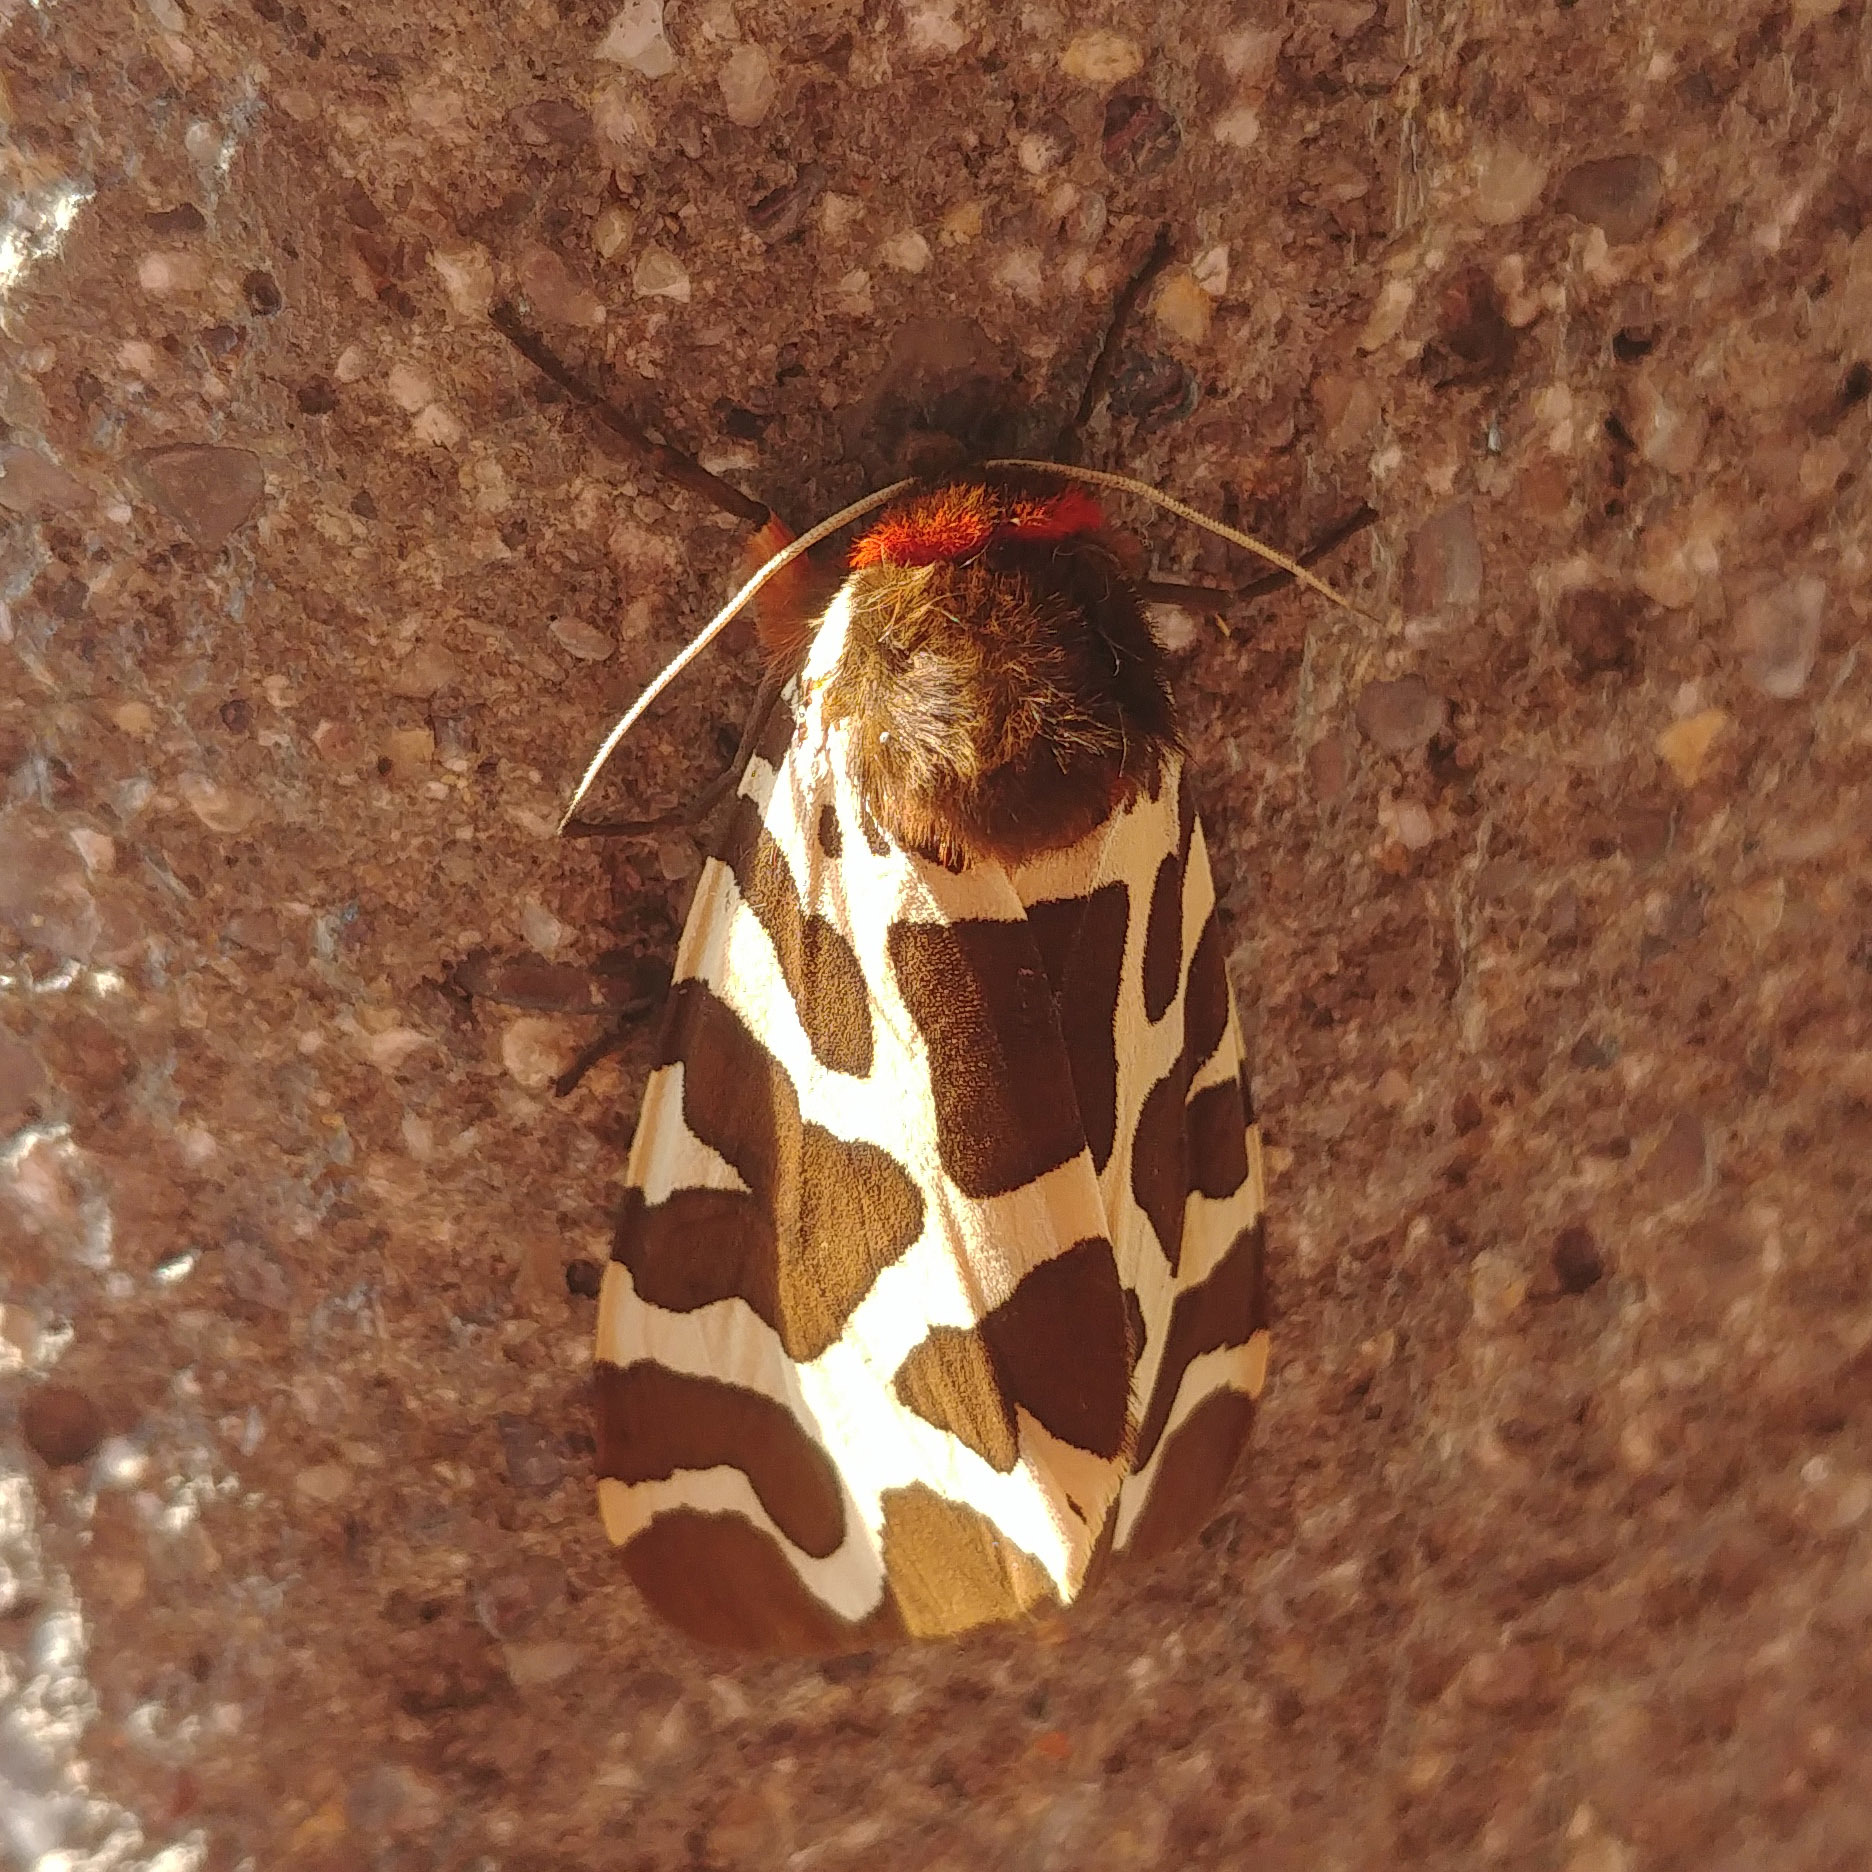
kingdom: Animalia
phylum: Arthropoda
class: Insecta
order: Lepidoptera
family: Erebidae
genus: Arctia
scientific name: Arctia caja
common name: Garden tiger
